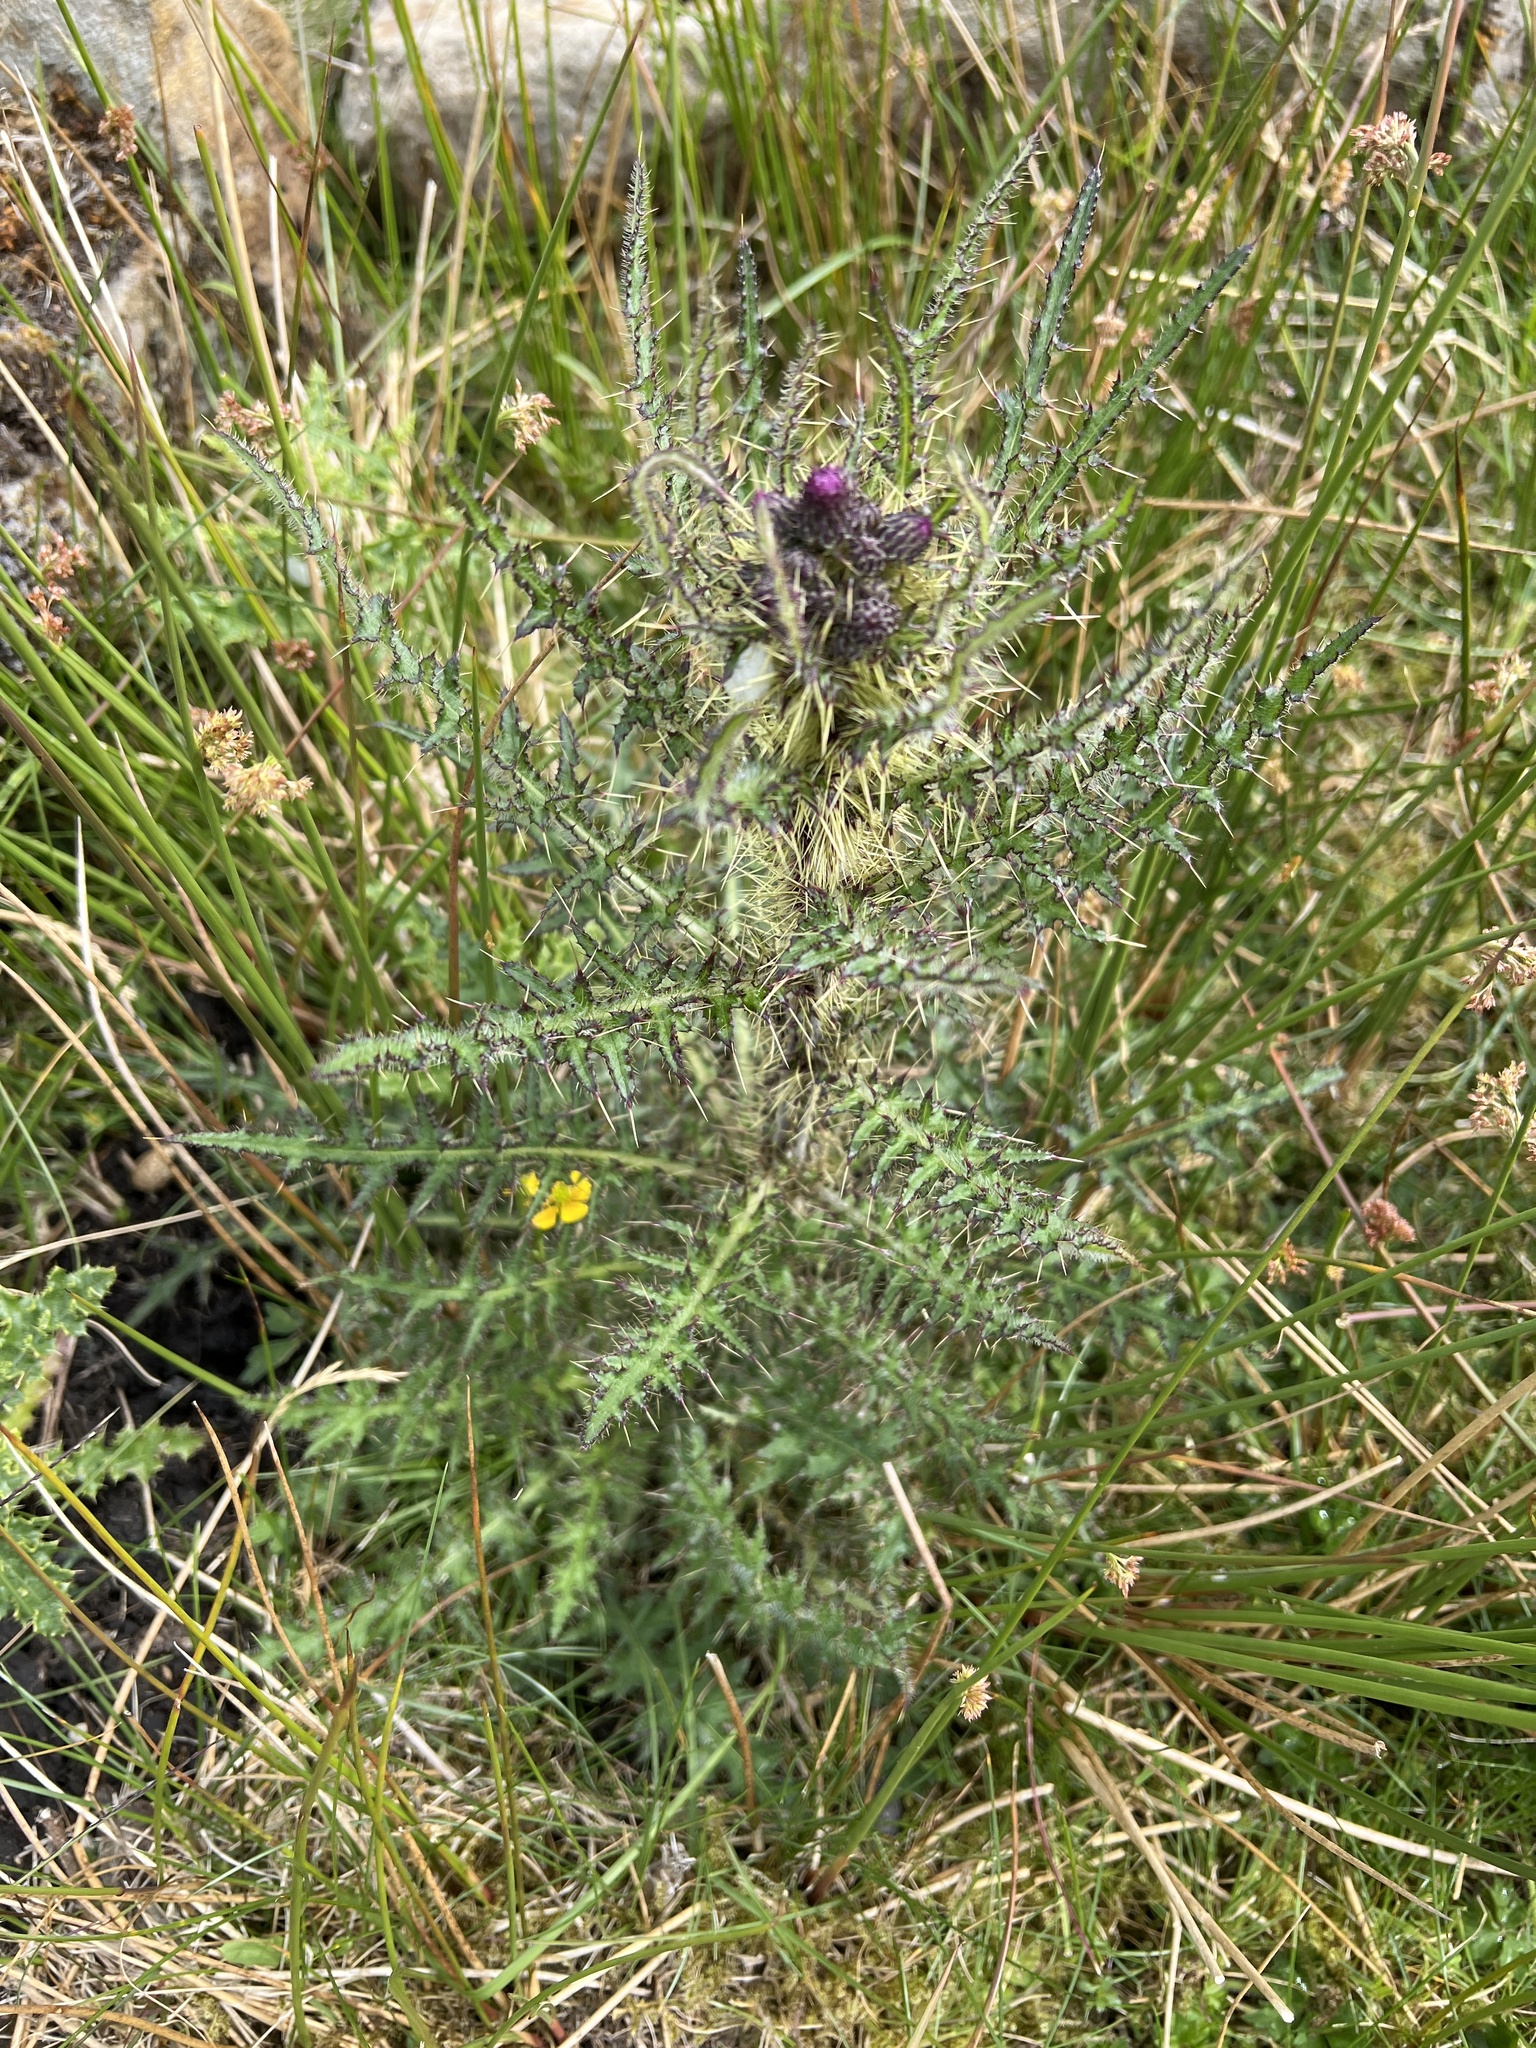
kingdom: Plantae
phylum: Tracheophyta
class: Magnoliopsida
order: Asterales
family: Asteraceae
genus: Cirsium
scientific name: Cirsium palustre
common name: Marsh thistle
